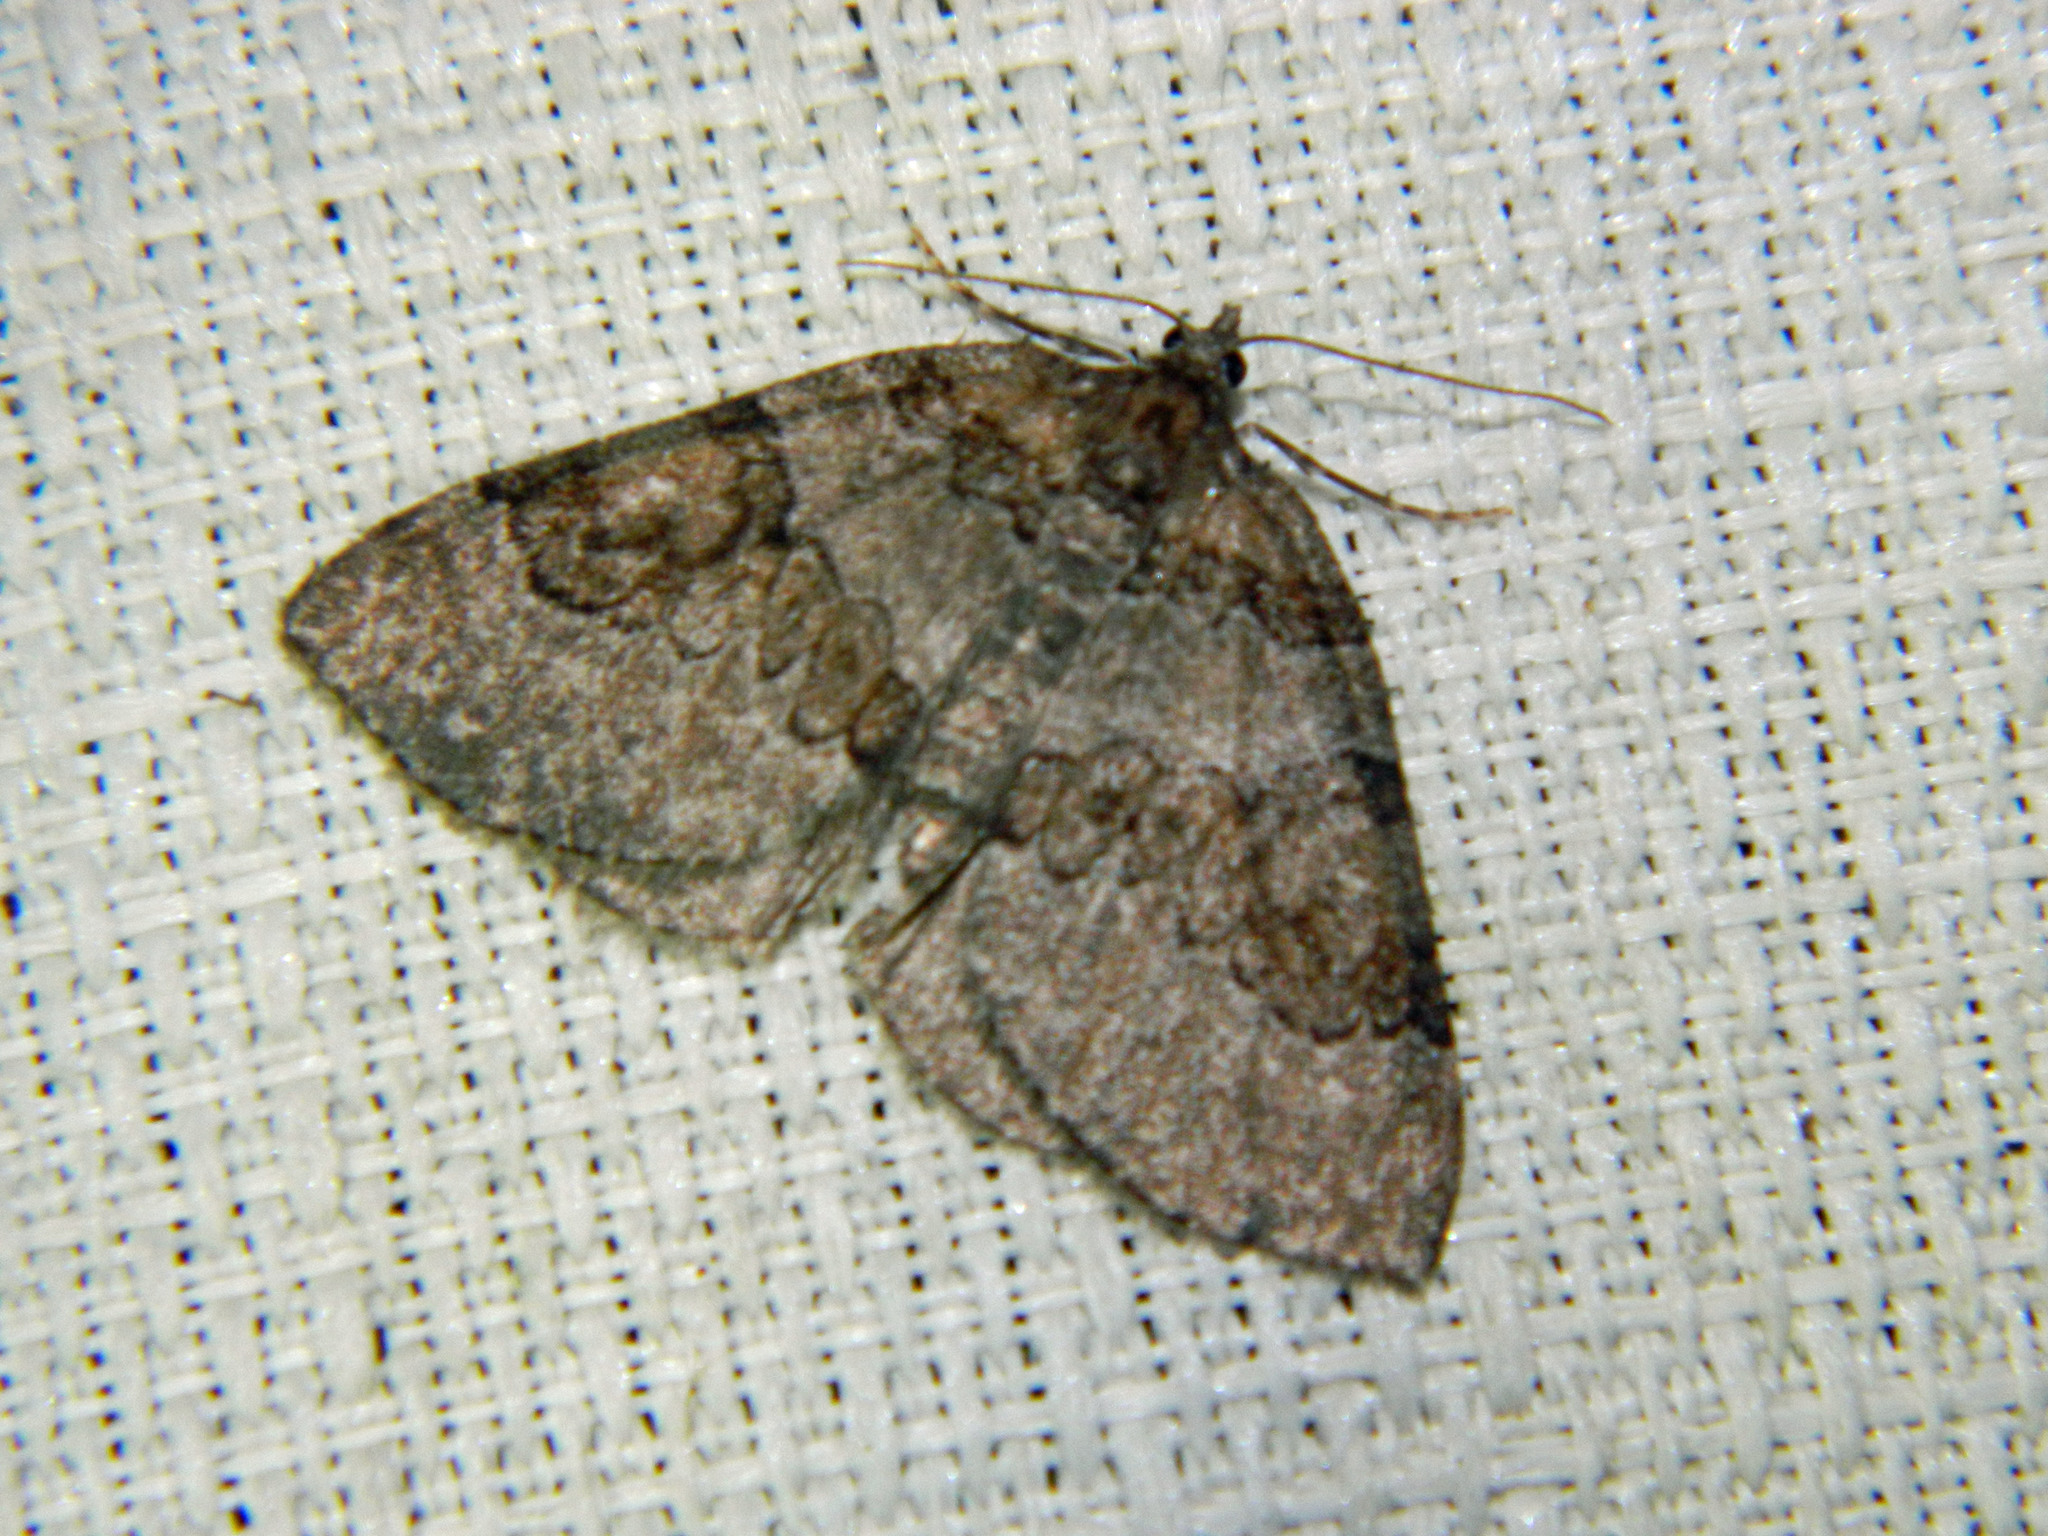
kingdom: Animalia
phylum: Arthropoda
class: Insecta
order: Lepidoptera
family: Geometridae
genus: Plemyria
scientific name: Plemyria georgii
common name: George's carpet moth
